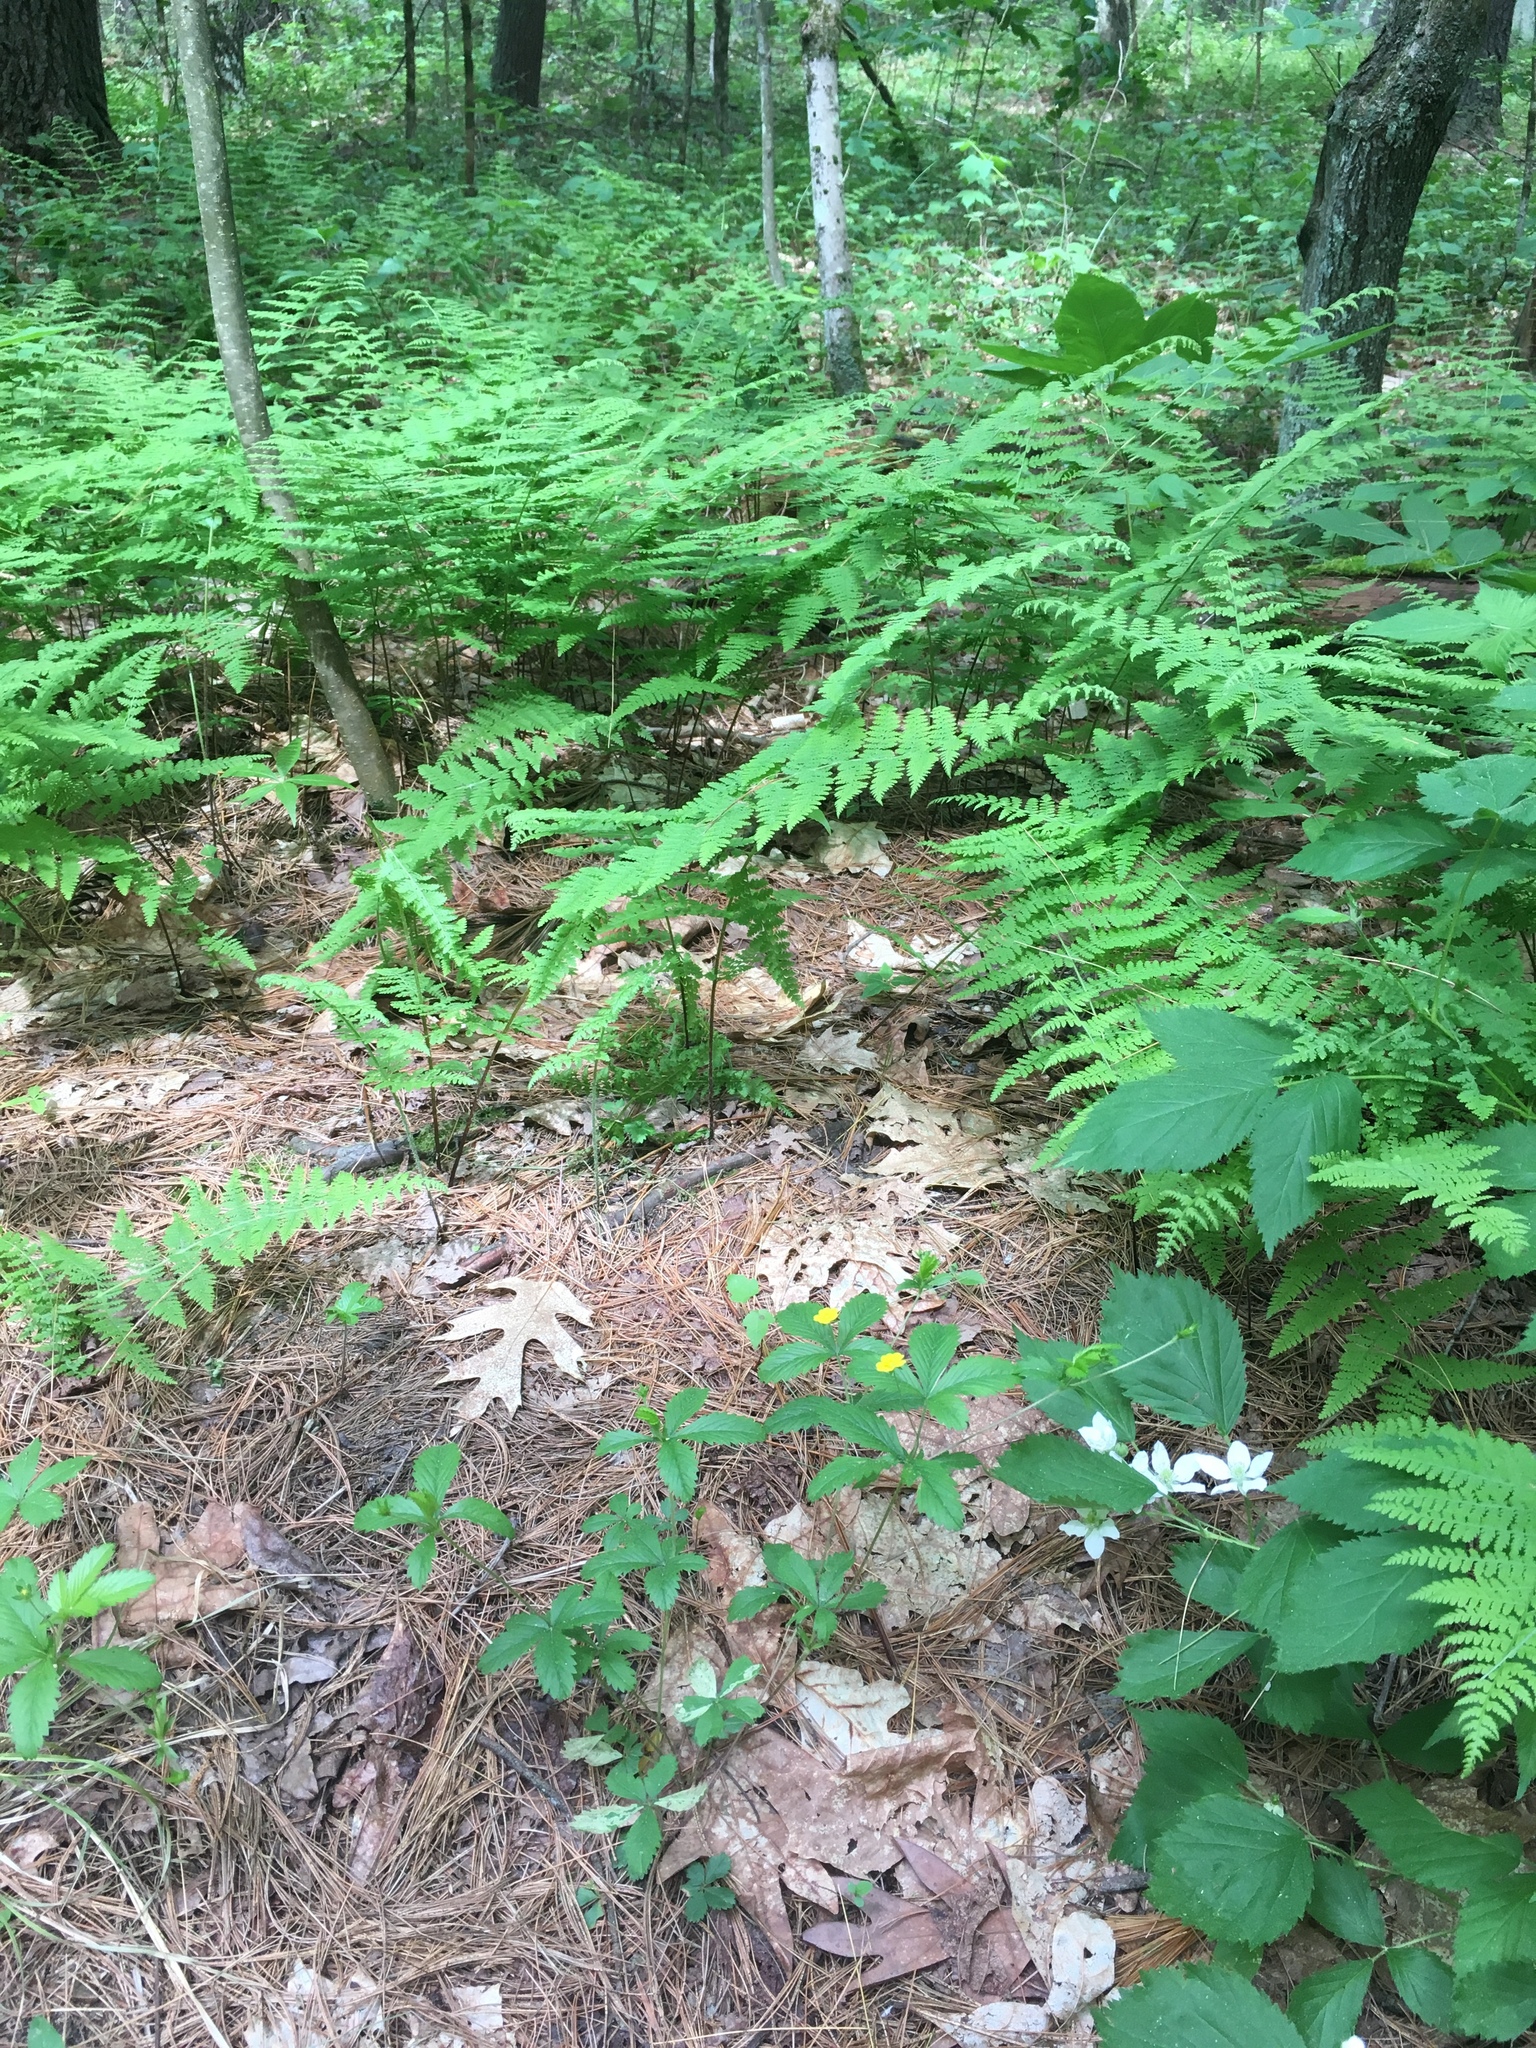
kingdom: Plantae
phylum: Tracheophyta
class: Magnoliopsida
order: Rosales
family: Rosaceae
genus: Potentilla
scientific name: Potentilla simplex
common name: Old field cinquefoil
